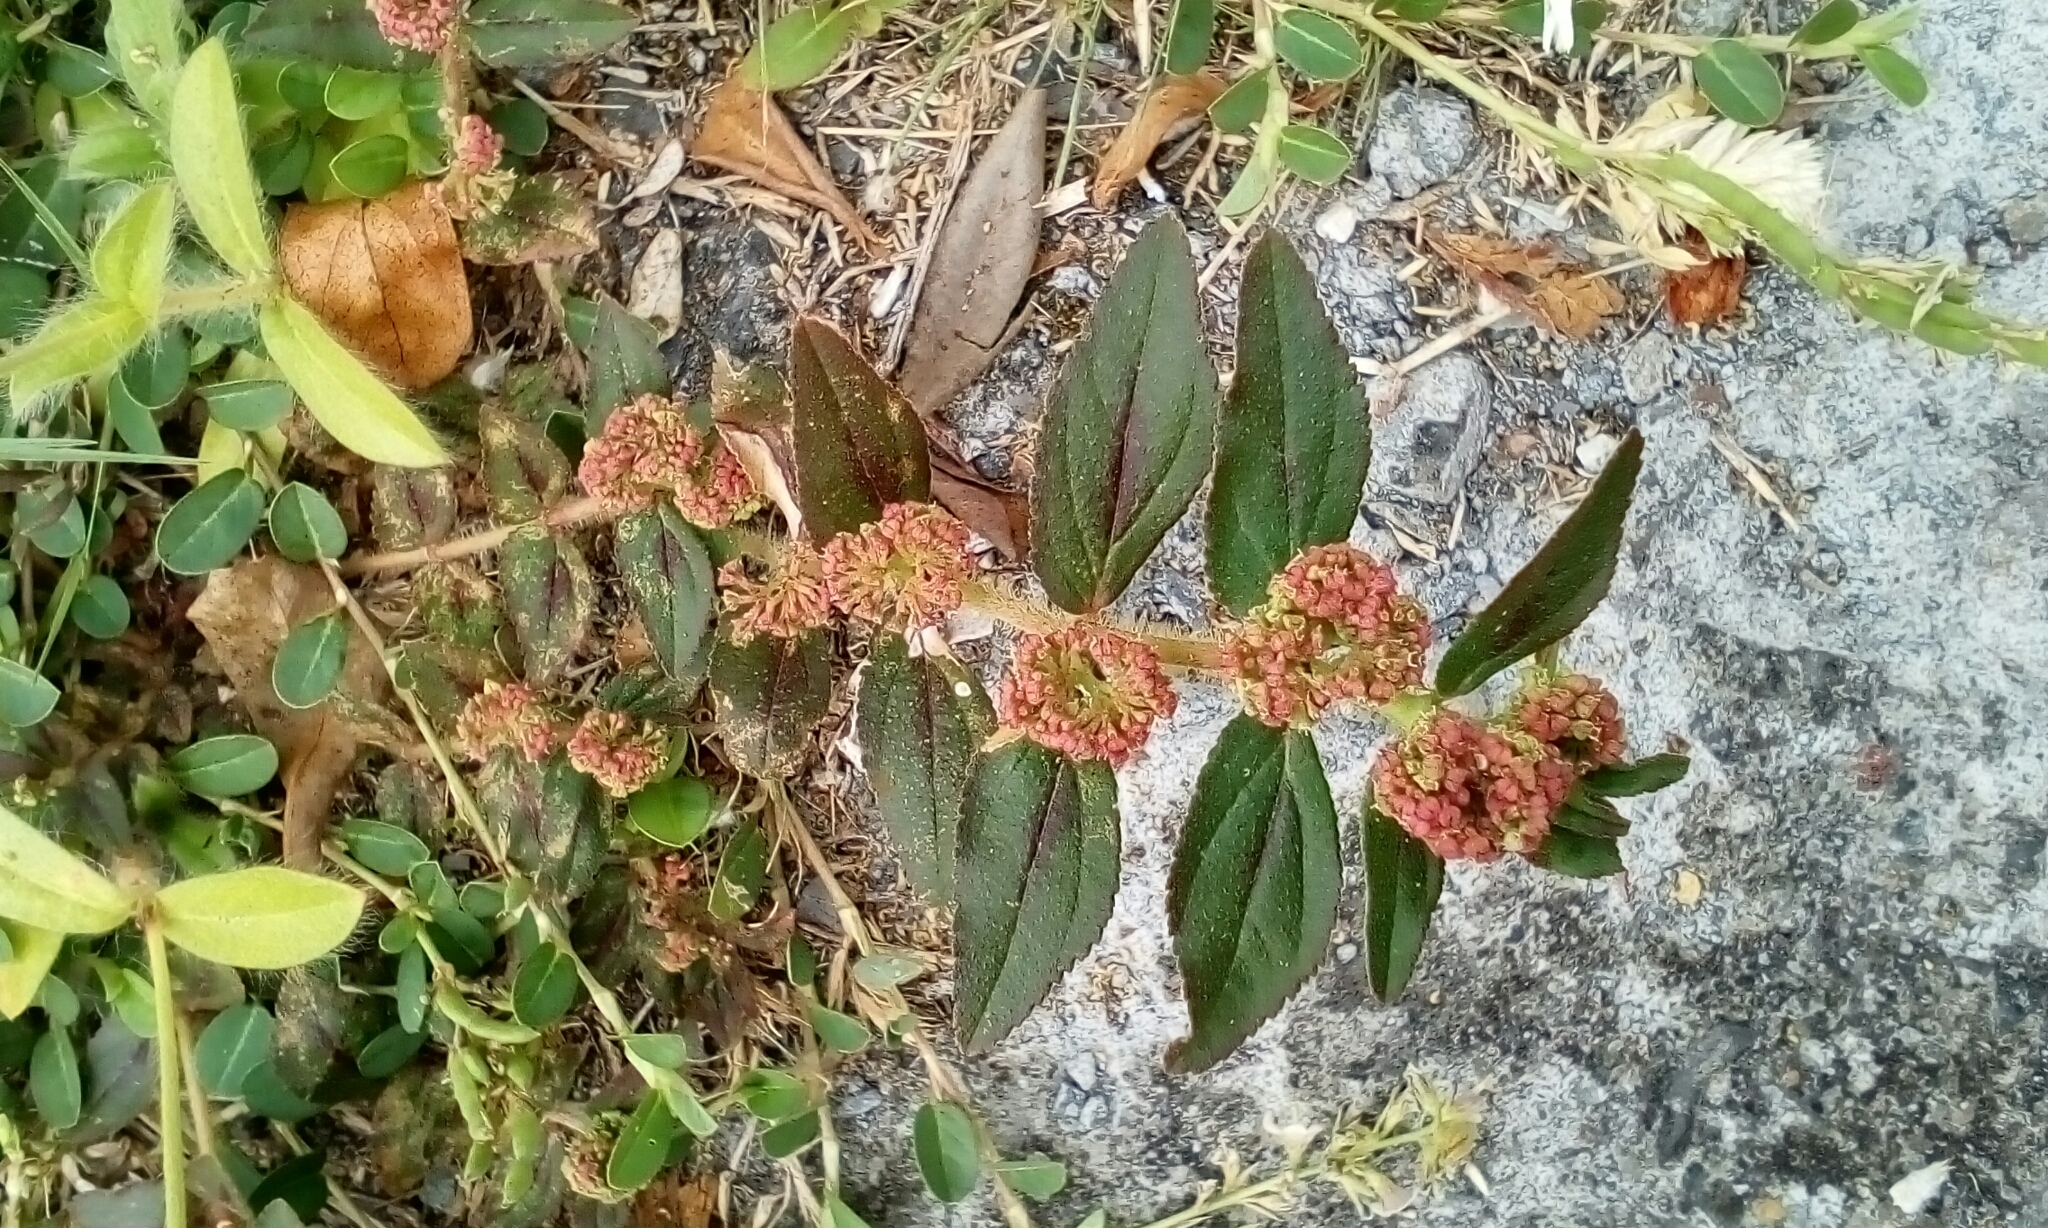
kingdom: Plantae
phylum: Tracheophyta
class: Magnoliopsida
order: Malpighiales
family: Euphorbiaceae
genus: Euphorbia
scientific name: Euphorbia hirta
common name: Pillpod sandmat
